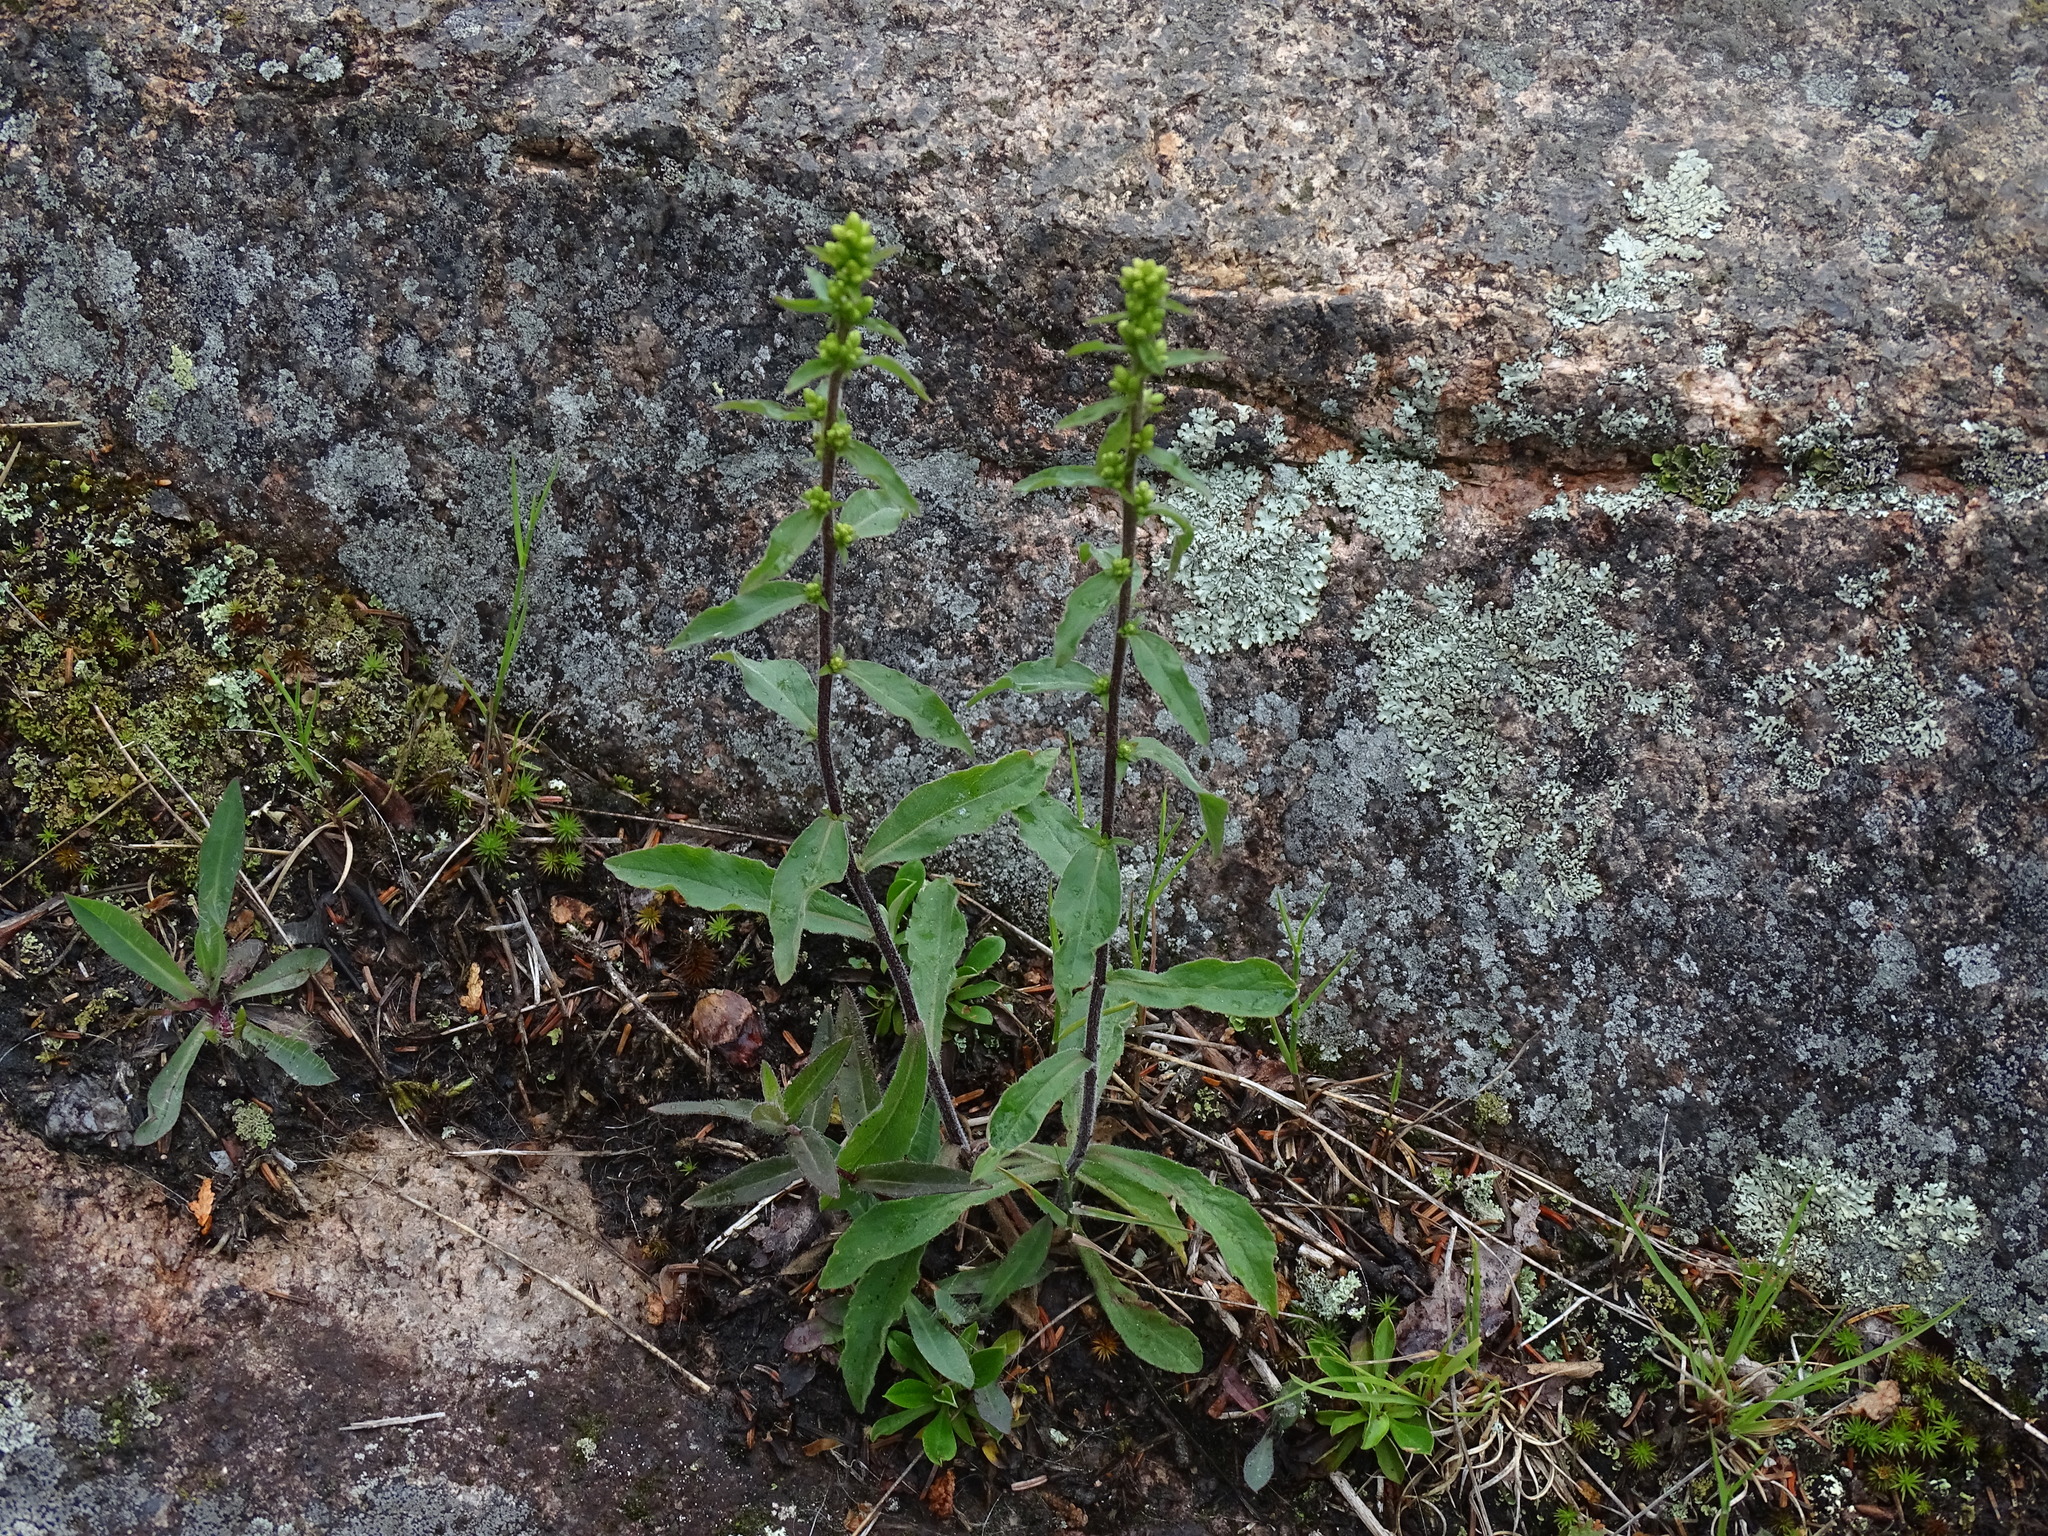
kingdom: Plantae
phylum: Tracheophyta
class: Magnoliopsida
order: Asterales
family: Asteraceae
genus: Solidago
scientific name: Solidago hispida
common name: Hairy goldenrod
